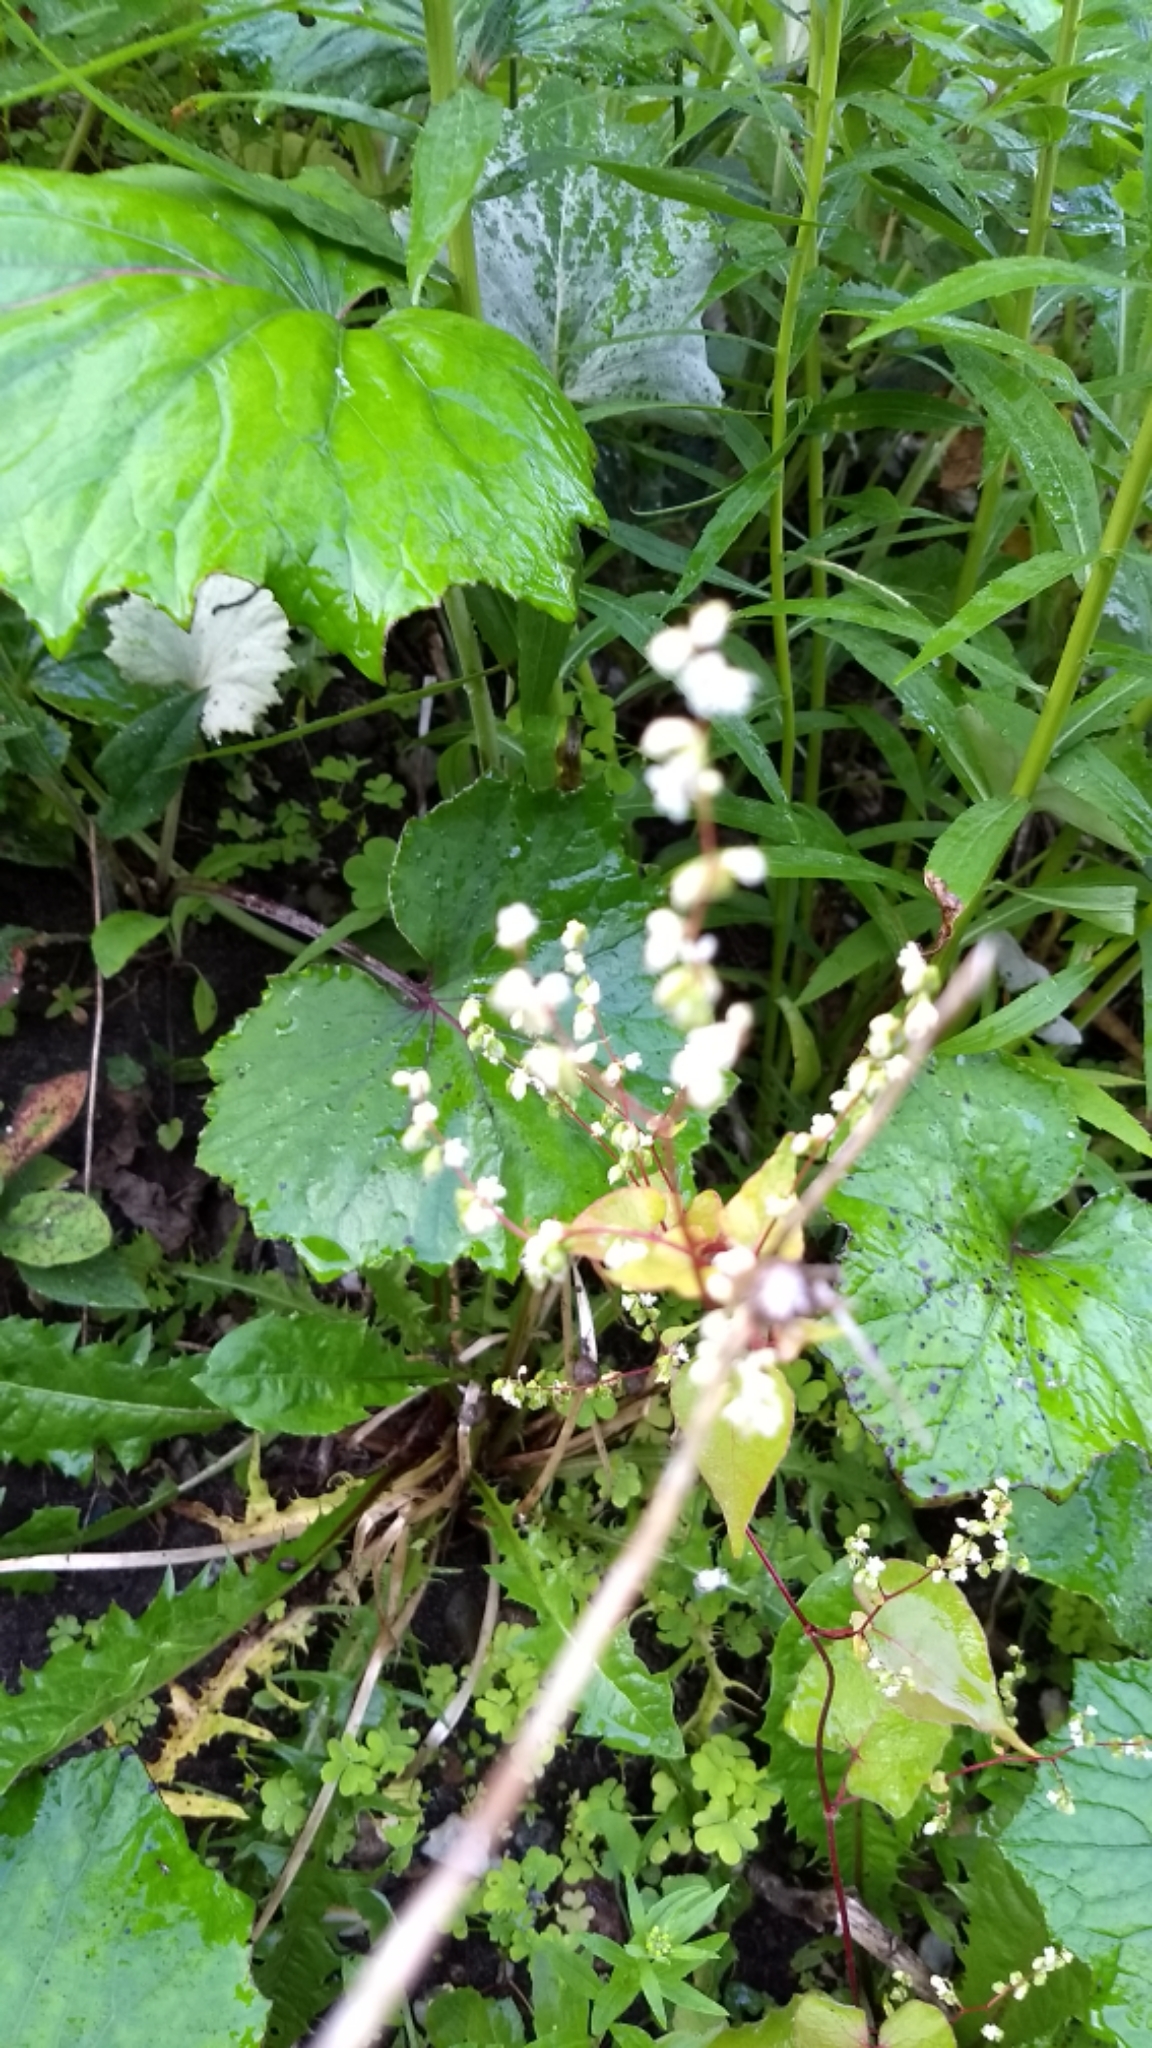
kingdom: Plantae
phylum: Tracheophyta
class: Magnoliopsida
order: Caryophyllales
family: Polygonaceae
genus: Parogonum
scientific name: Parogonum ciliinode
